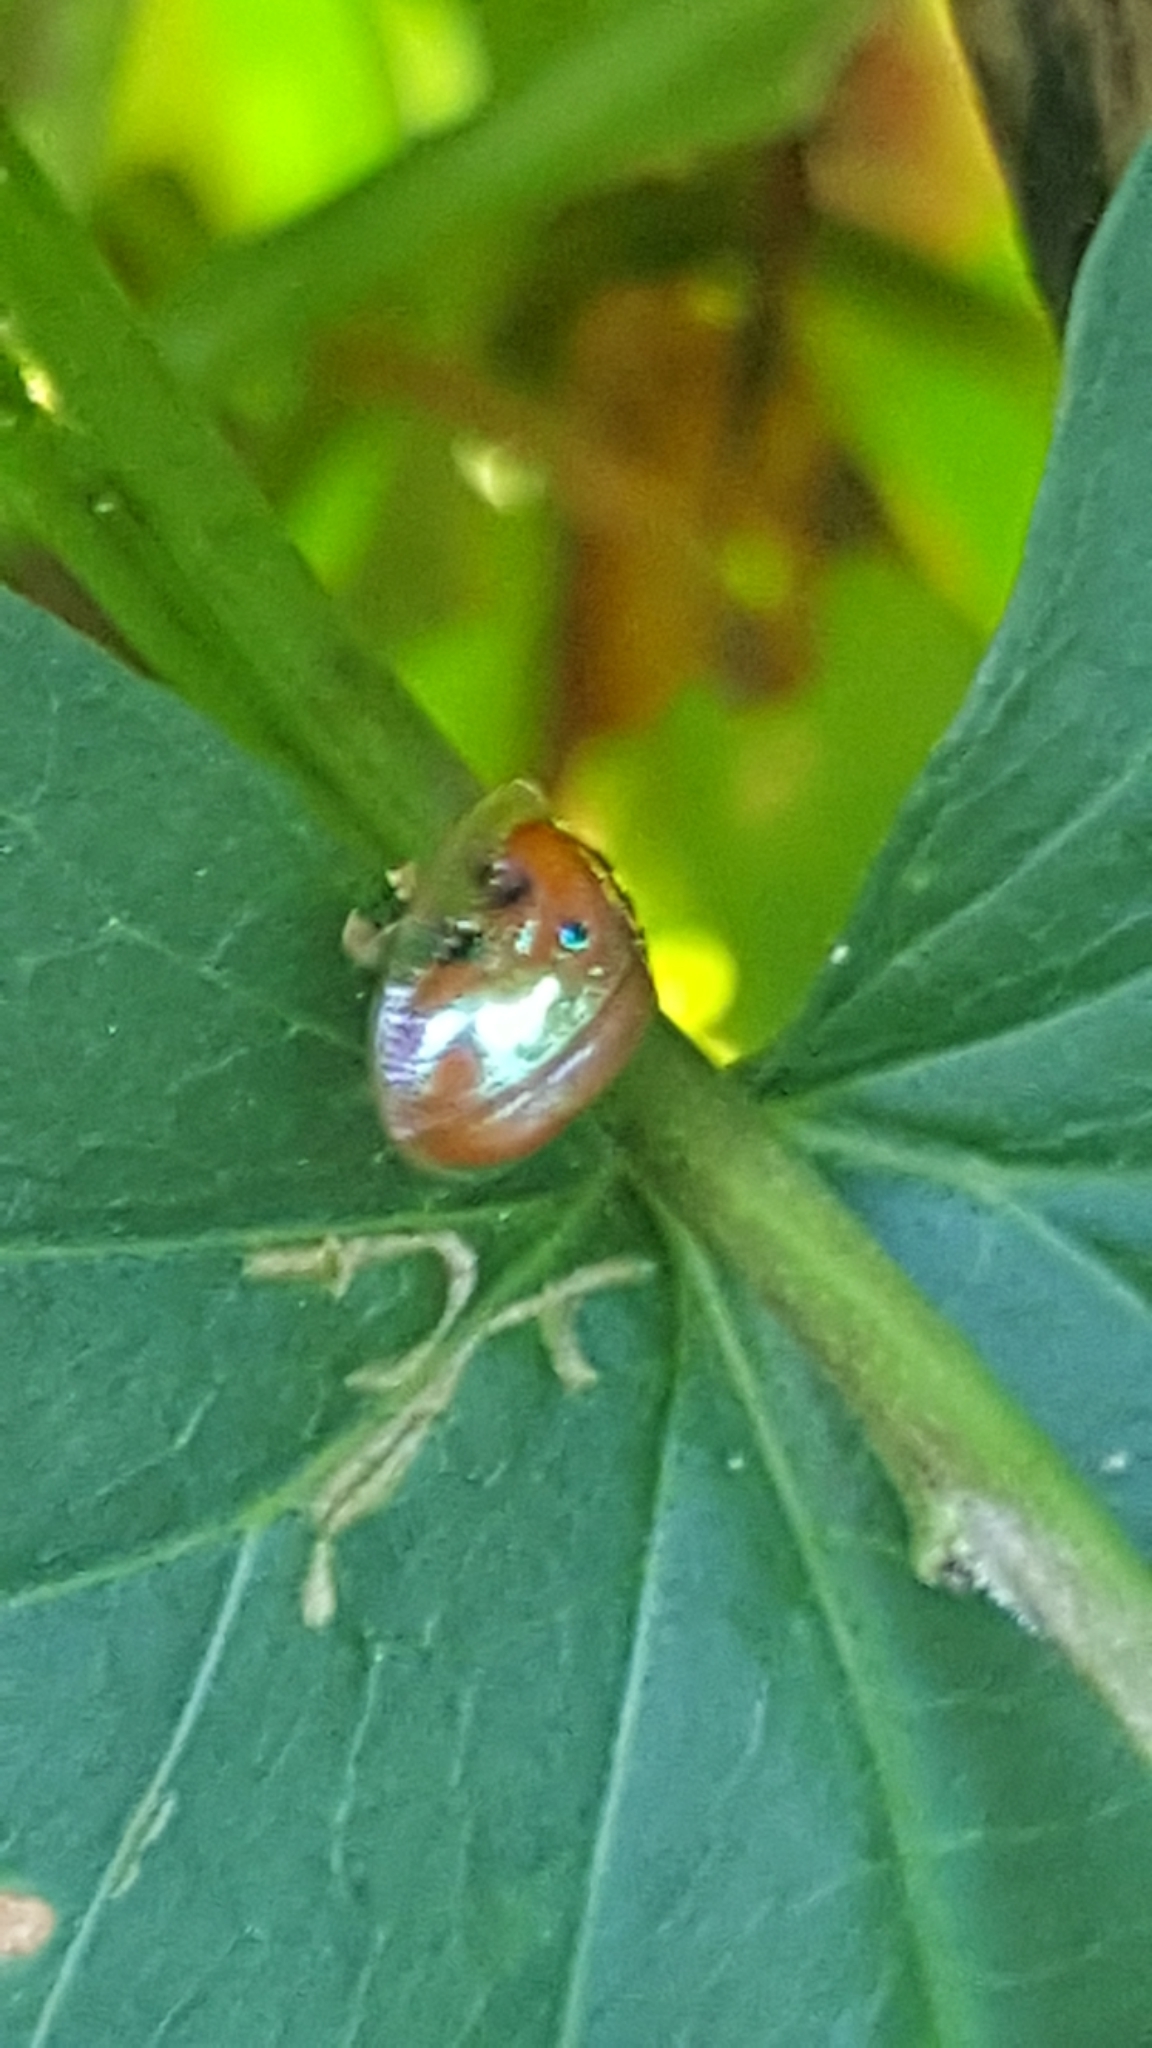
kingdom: Animalia
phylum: Arthropoda
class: Insecta
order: Coleoptera
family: Chrysomelidae
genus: Charidotella
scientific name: Charidotella sexpunctata
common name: Golden tortoise beetle
